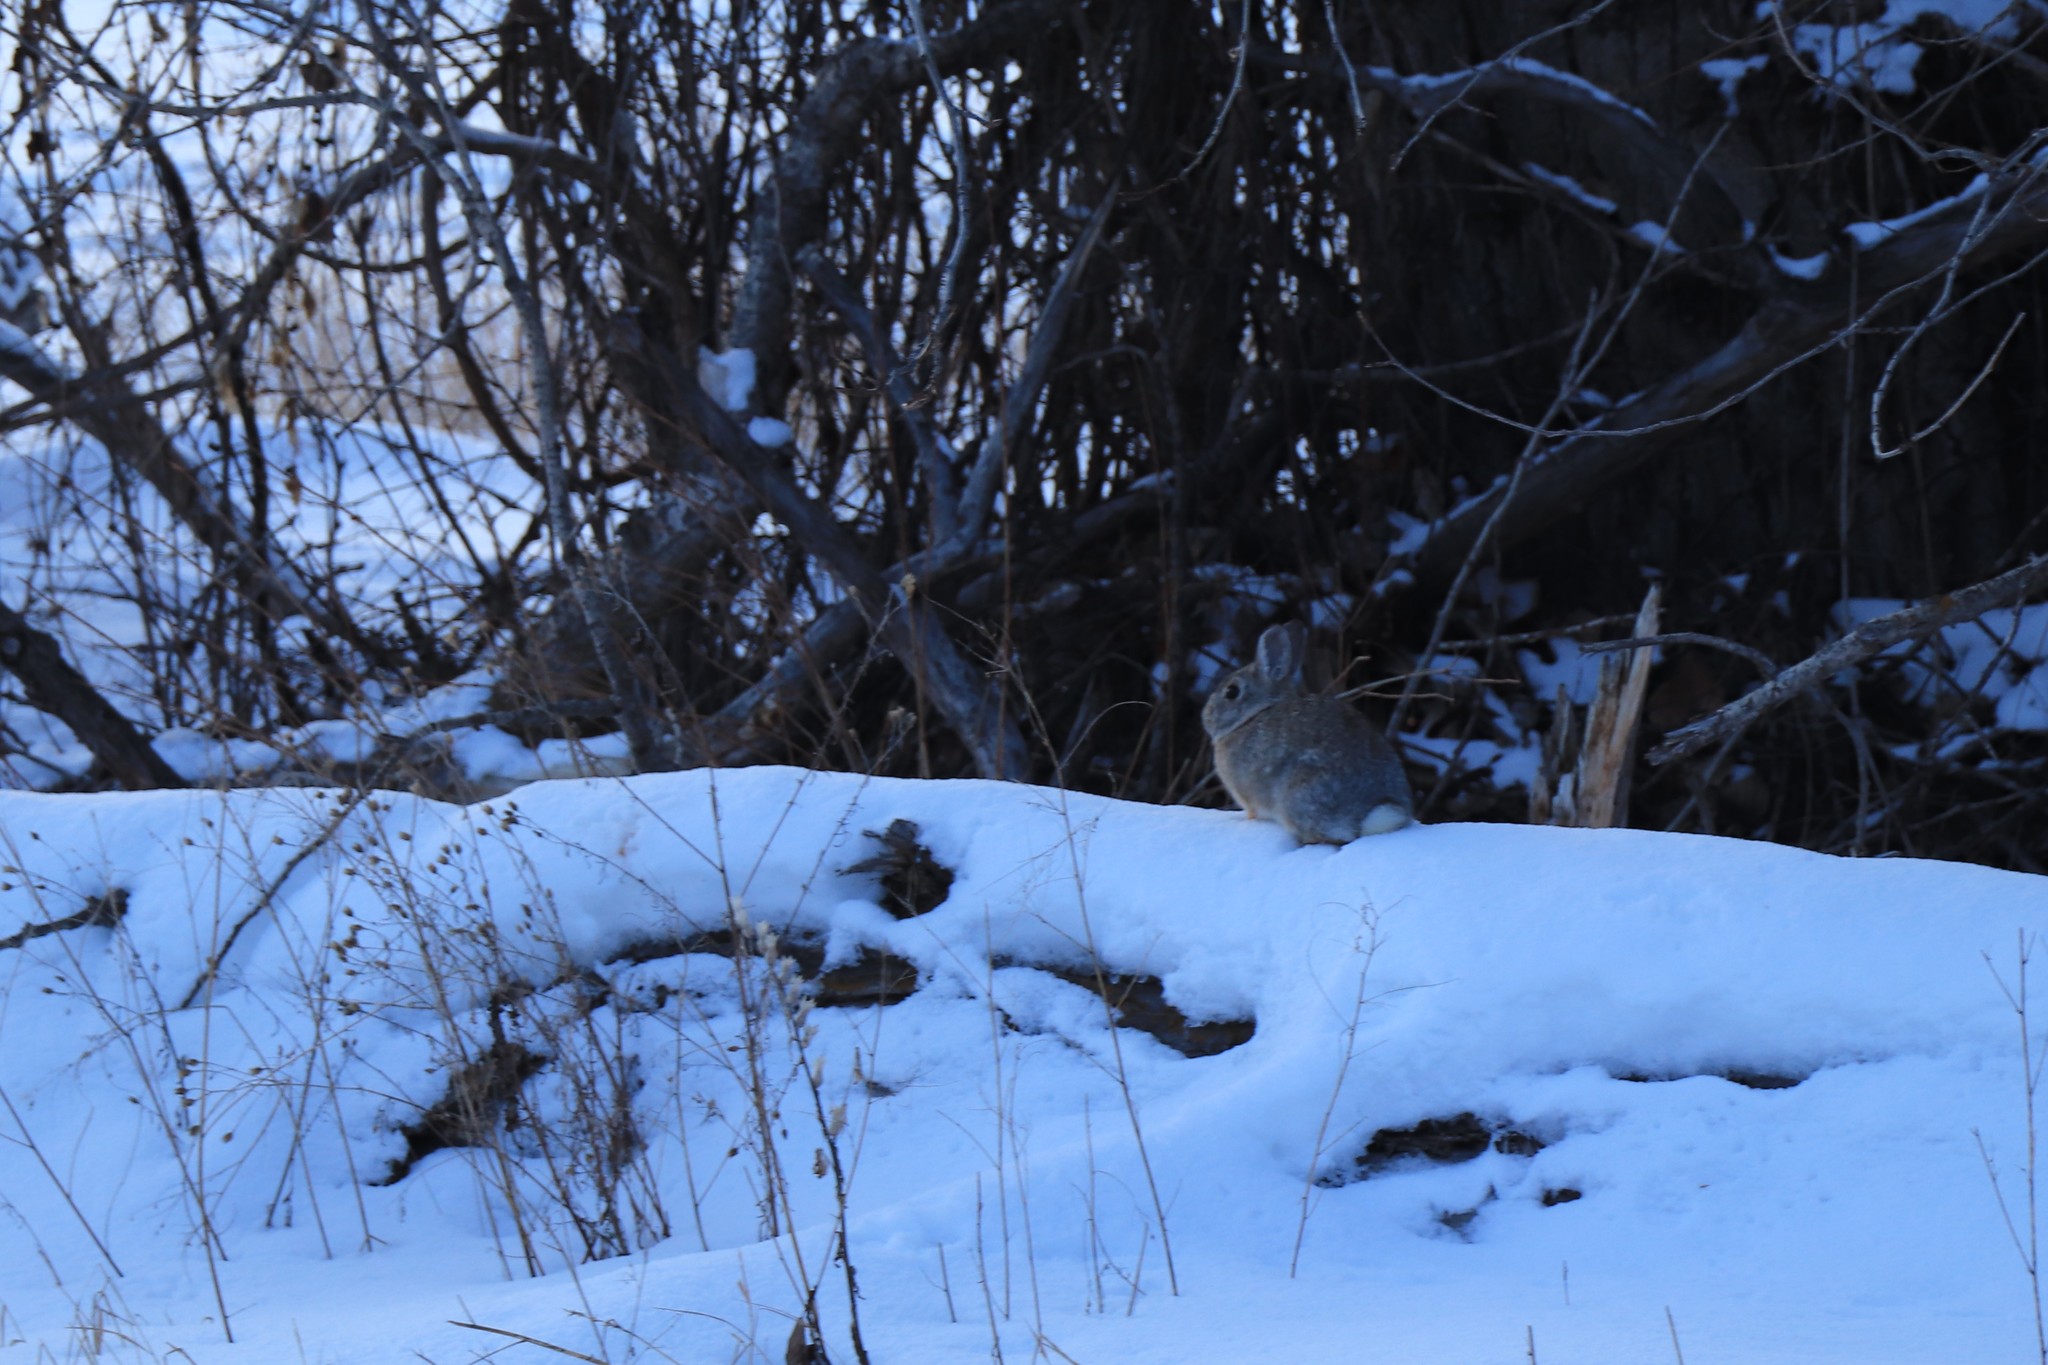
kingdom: Animalia
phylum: Chordata
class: Mammalia
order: Lagomorpha
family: Leporidae
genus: Sylvilagus
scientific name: Sylvilagus nuttallii
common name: Mountain cottontail
